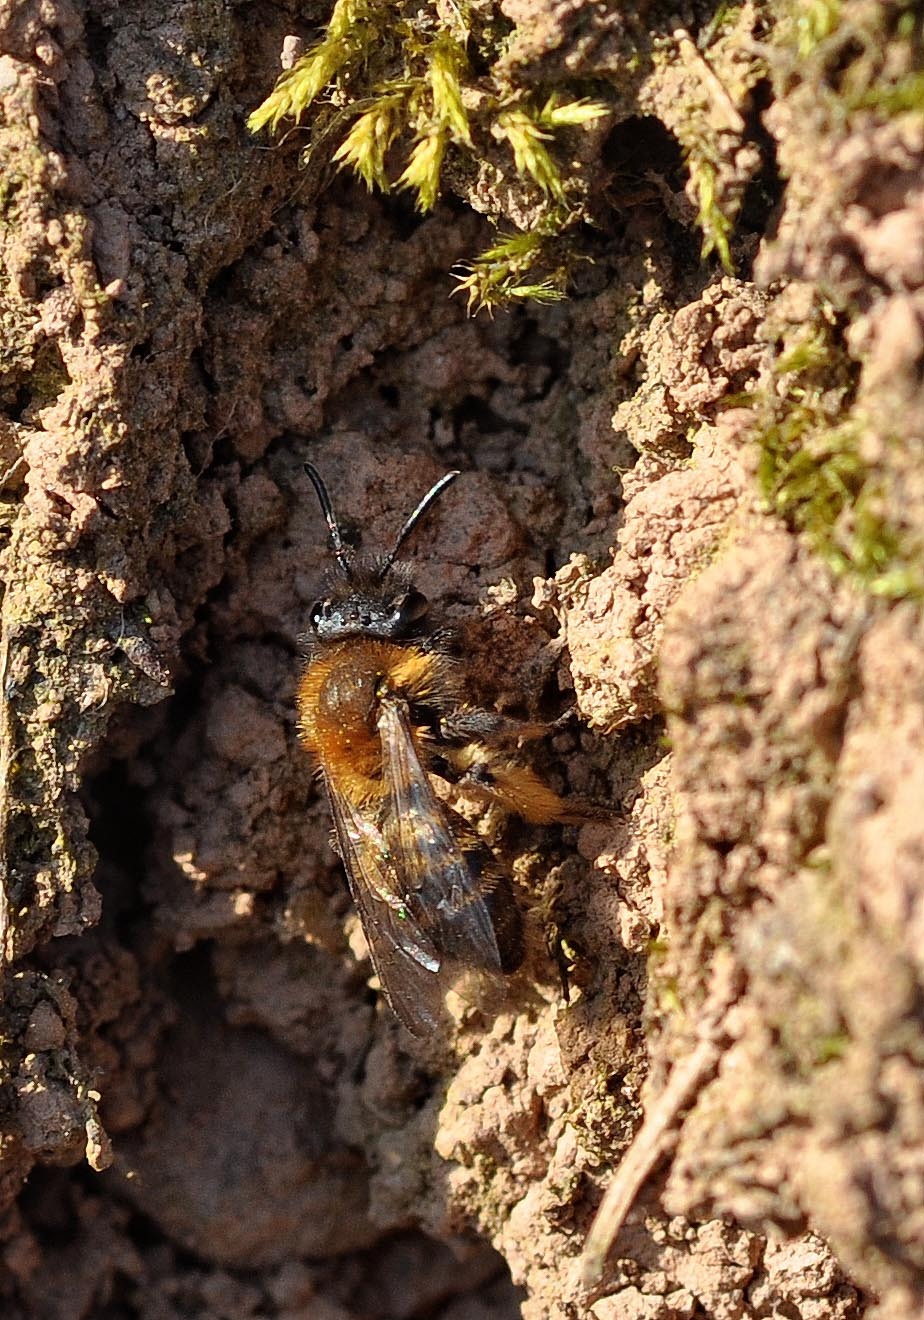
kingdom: Animalia
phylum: Arthropoda
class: Insecta
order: Hymenoptera
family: Andrenidae
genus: Andrena
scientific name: Andrena bicolor
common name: Gwynne's mining bee
